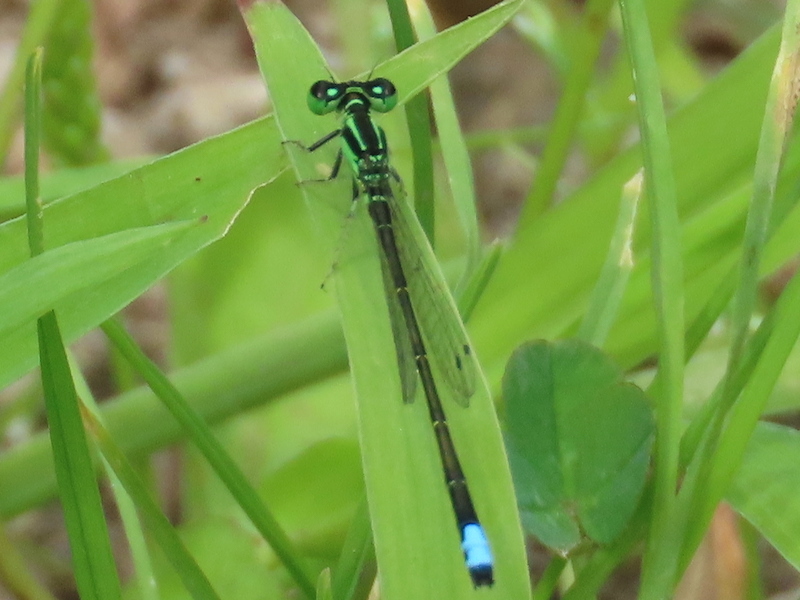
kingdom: Animalia
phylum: Arthropoda
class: Insecta
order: Odonata
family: Coenagrionidae
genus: Ischnura
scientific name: Ischnura verticalis
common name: Eastern forktail
